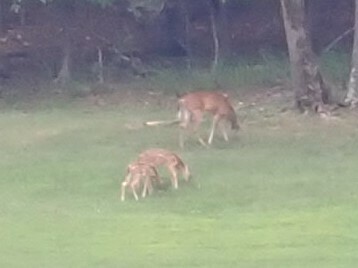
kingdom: Animalia
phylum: Chordata
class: Mammalia
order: Artiodactyla
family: Cervidae
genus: Odocoileus
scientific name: Odocoileus virginianus
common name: White-tailed deer
